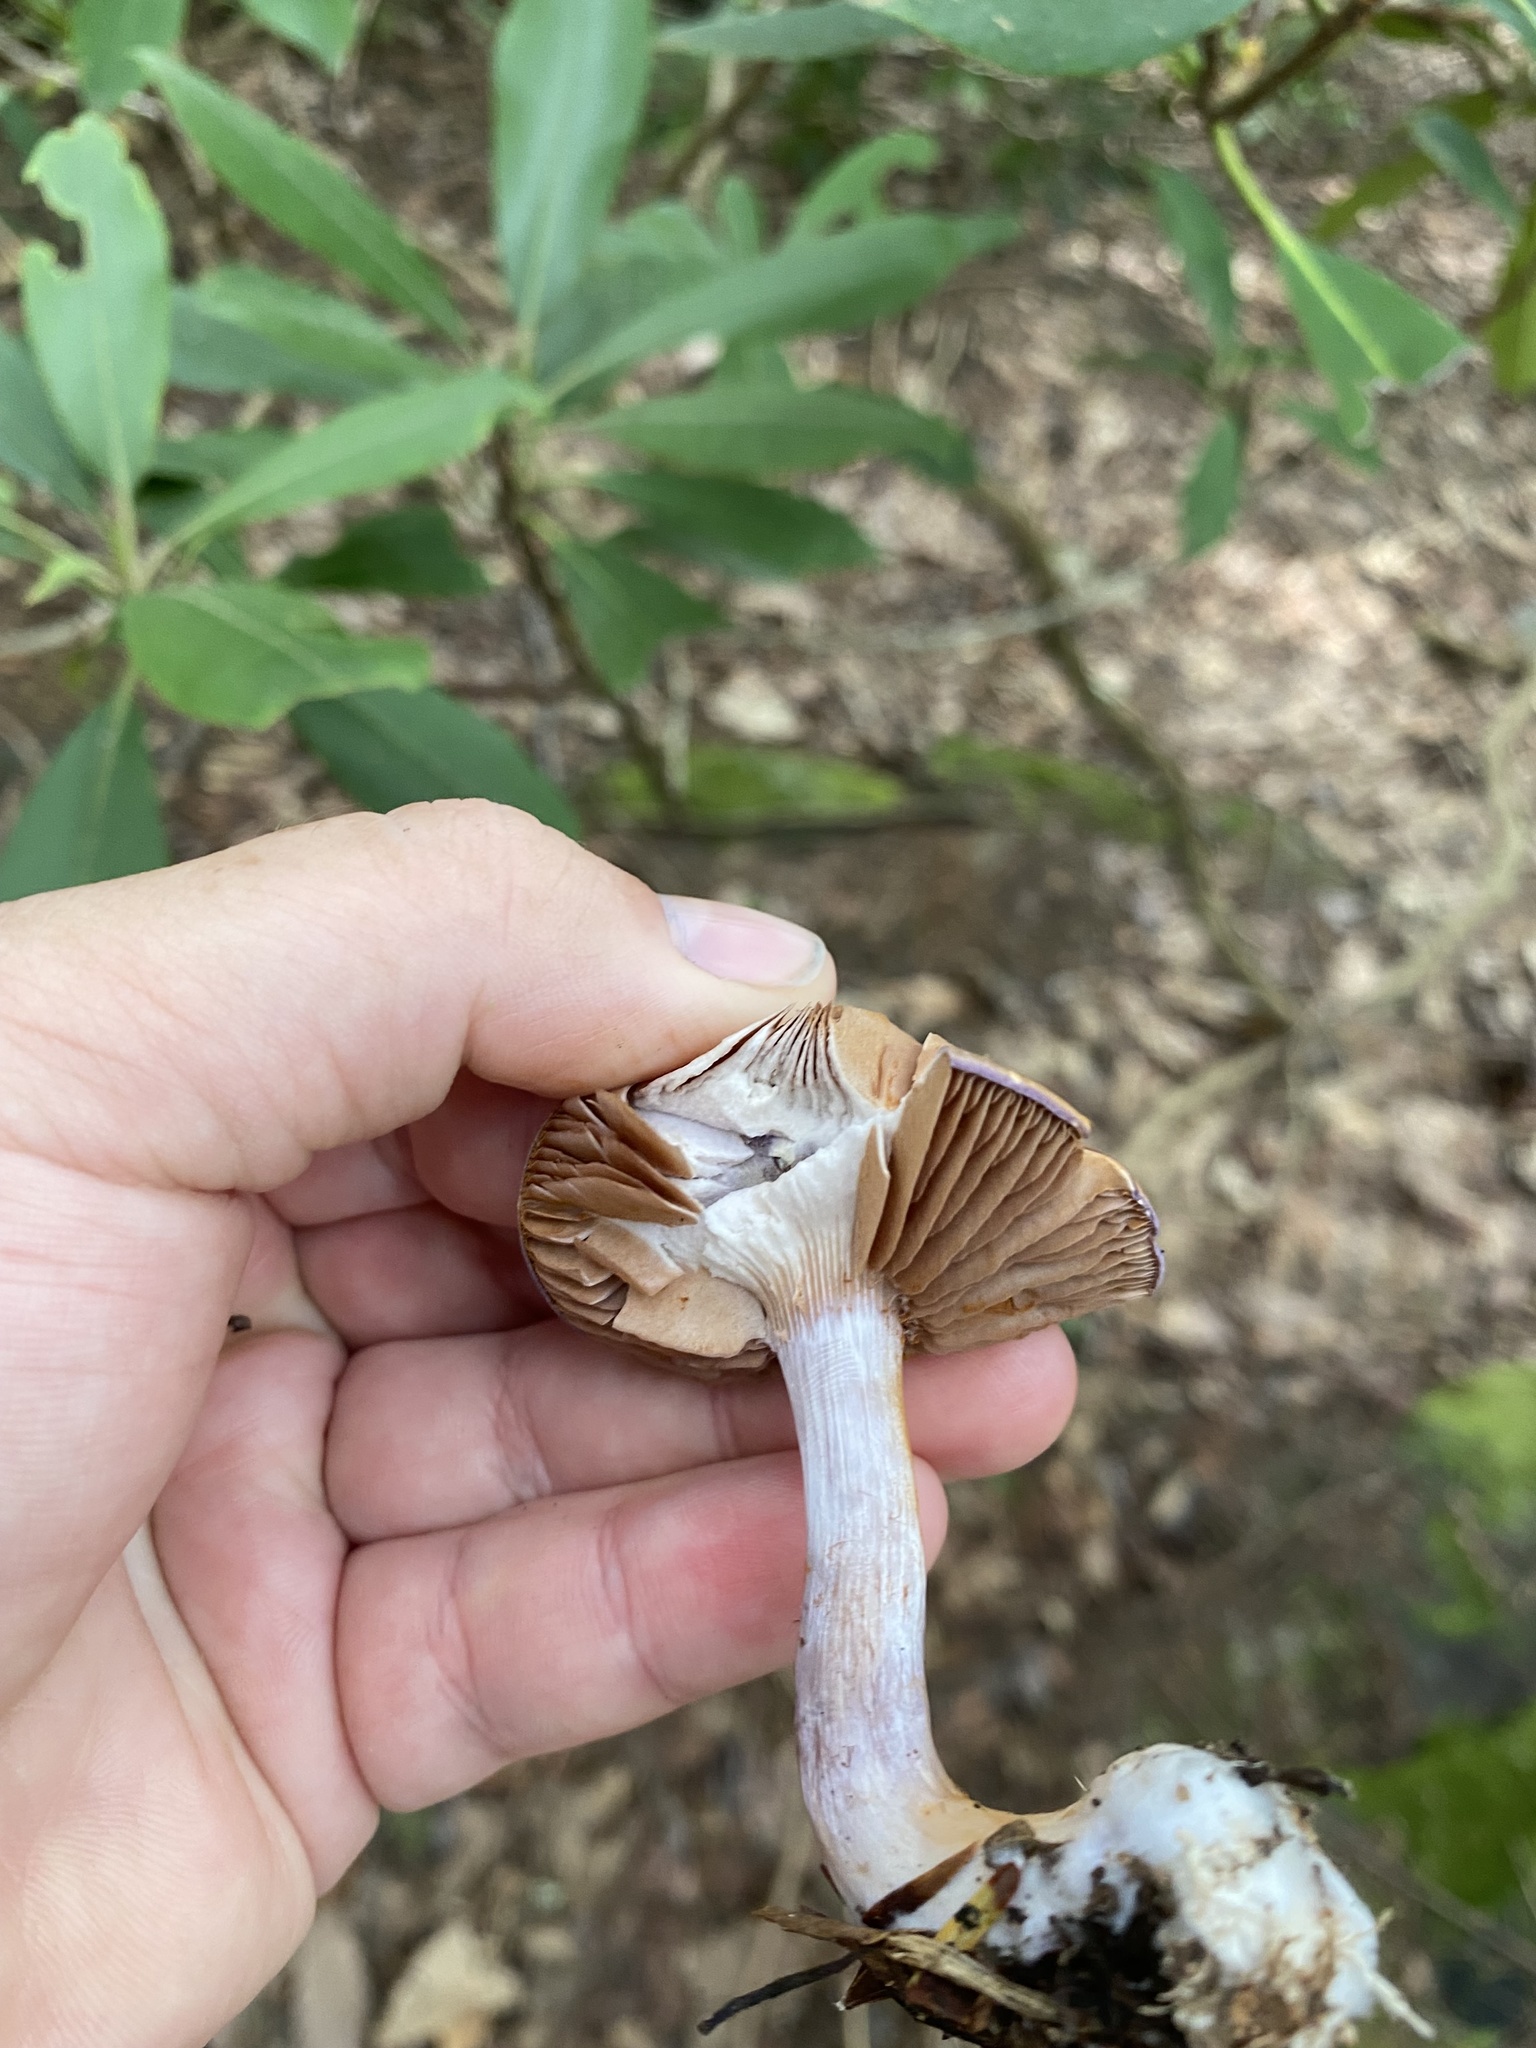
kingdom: Fungi
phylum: Basidiomycota
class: Agaricomycetes
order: Agaricales
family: Cortinariaceae
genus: Cortinarius
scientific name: Cortinarius iodes
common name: Viscid violet cort
